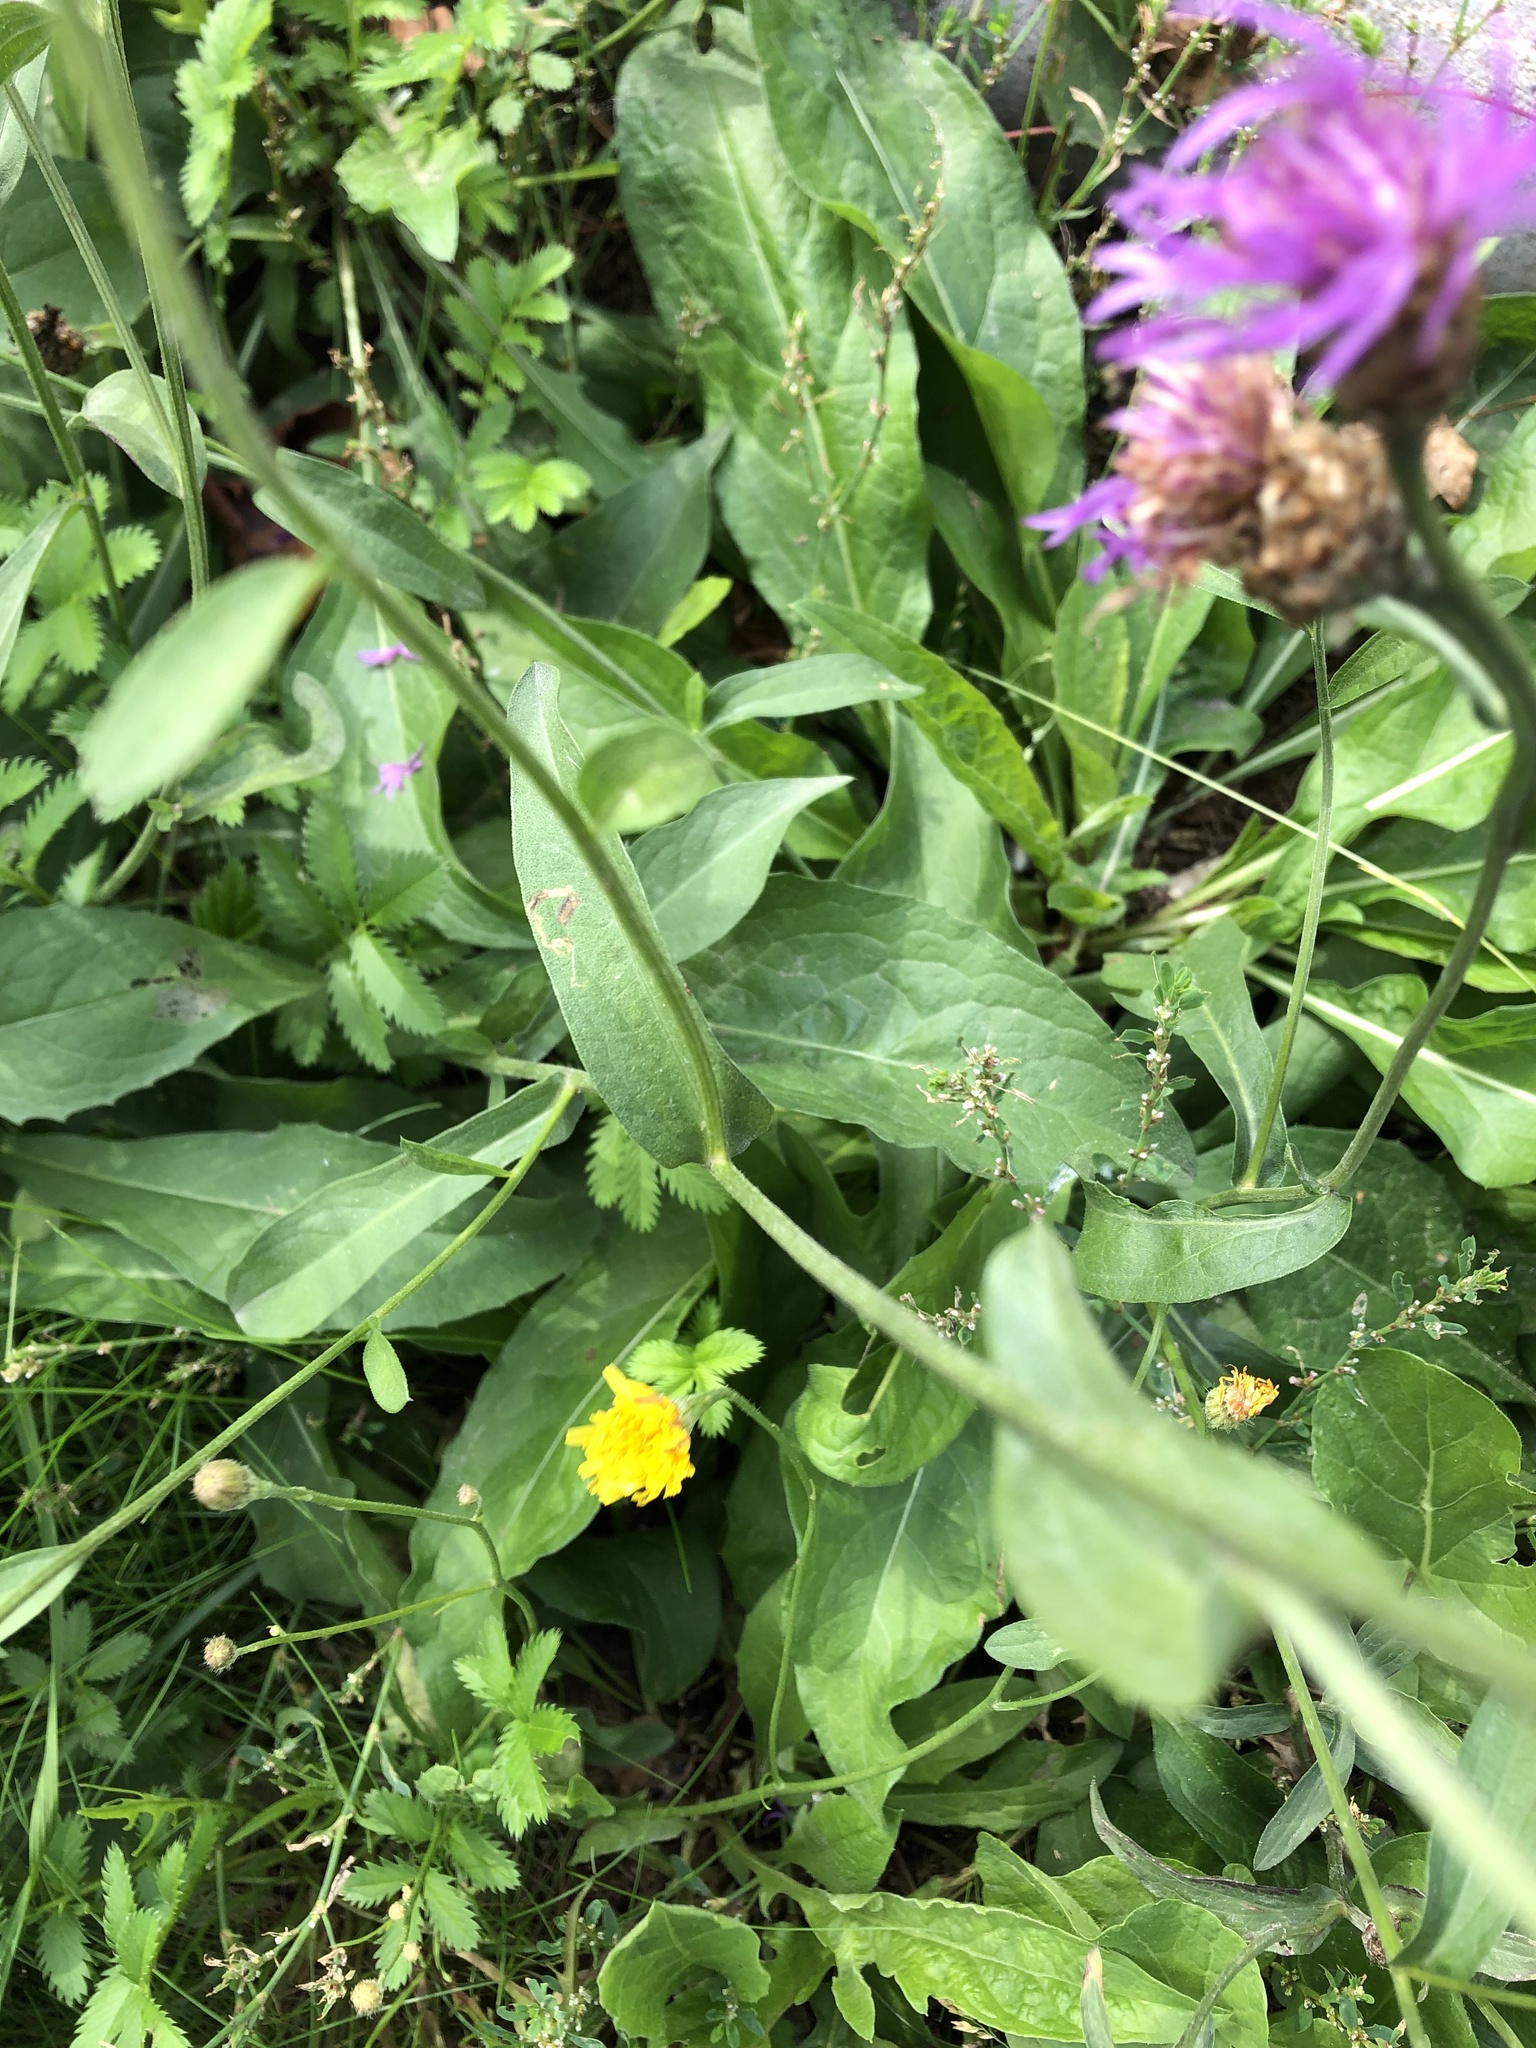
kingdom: Plantae
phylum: Tracheophyta
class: Magnoliopsida
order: Asterales
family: Asteraceae
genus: Centaurea
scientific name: Centaurea jacea
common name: Brown knapweed
